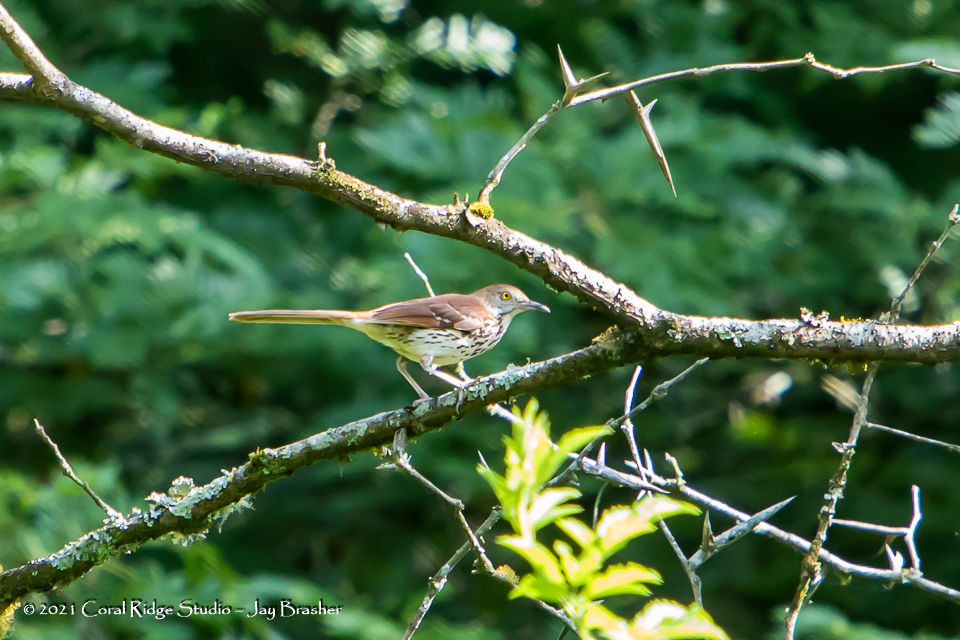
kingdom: Animalia
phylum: Chordata
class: Aves
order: Passeriformes
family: Mimidae
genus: Toxostoma
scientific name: Toxostoma rufum
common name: Brown thrasher
